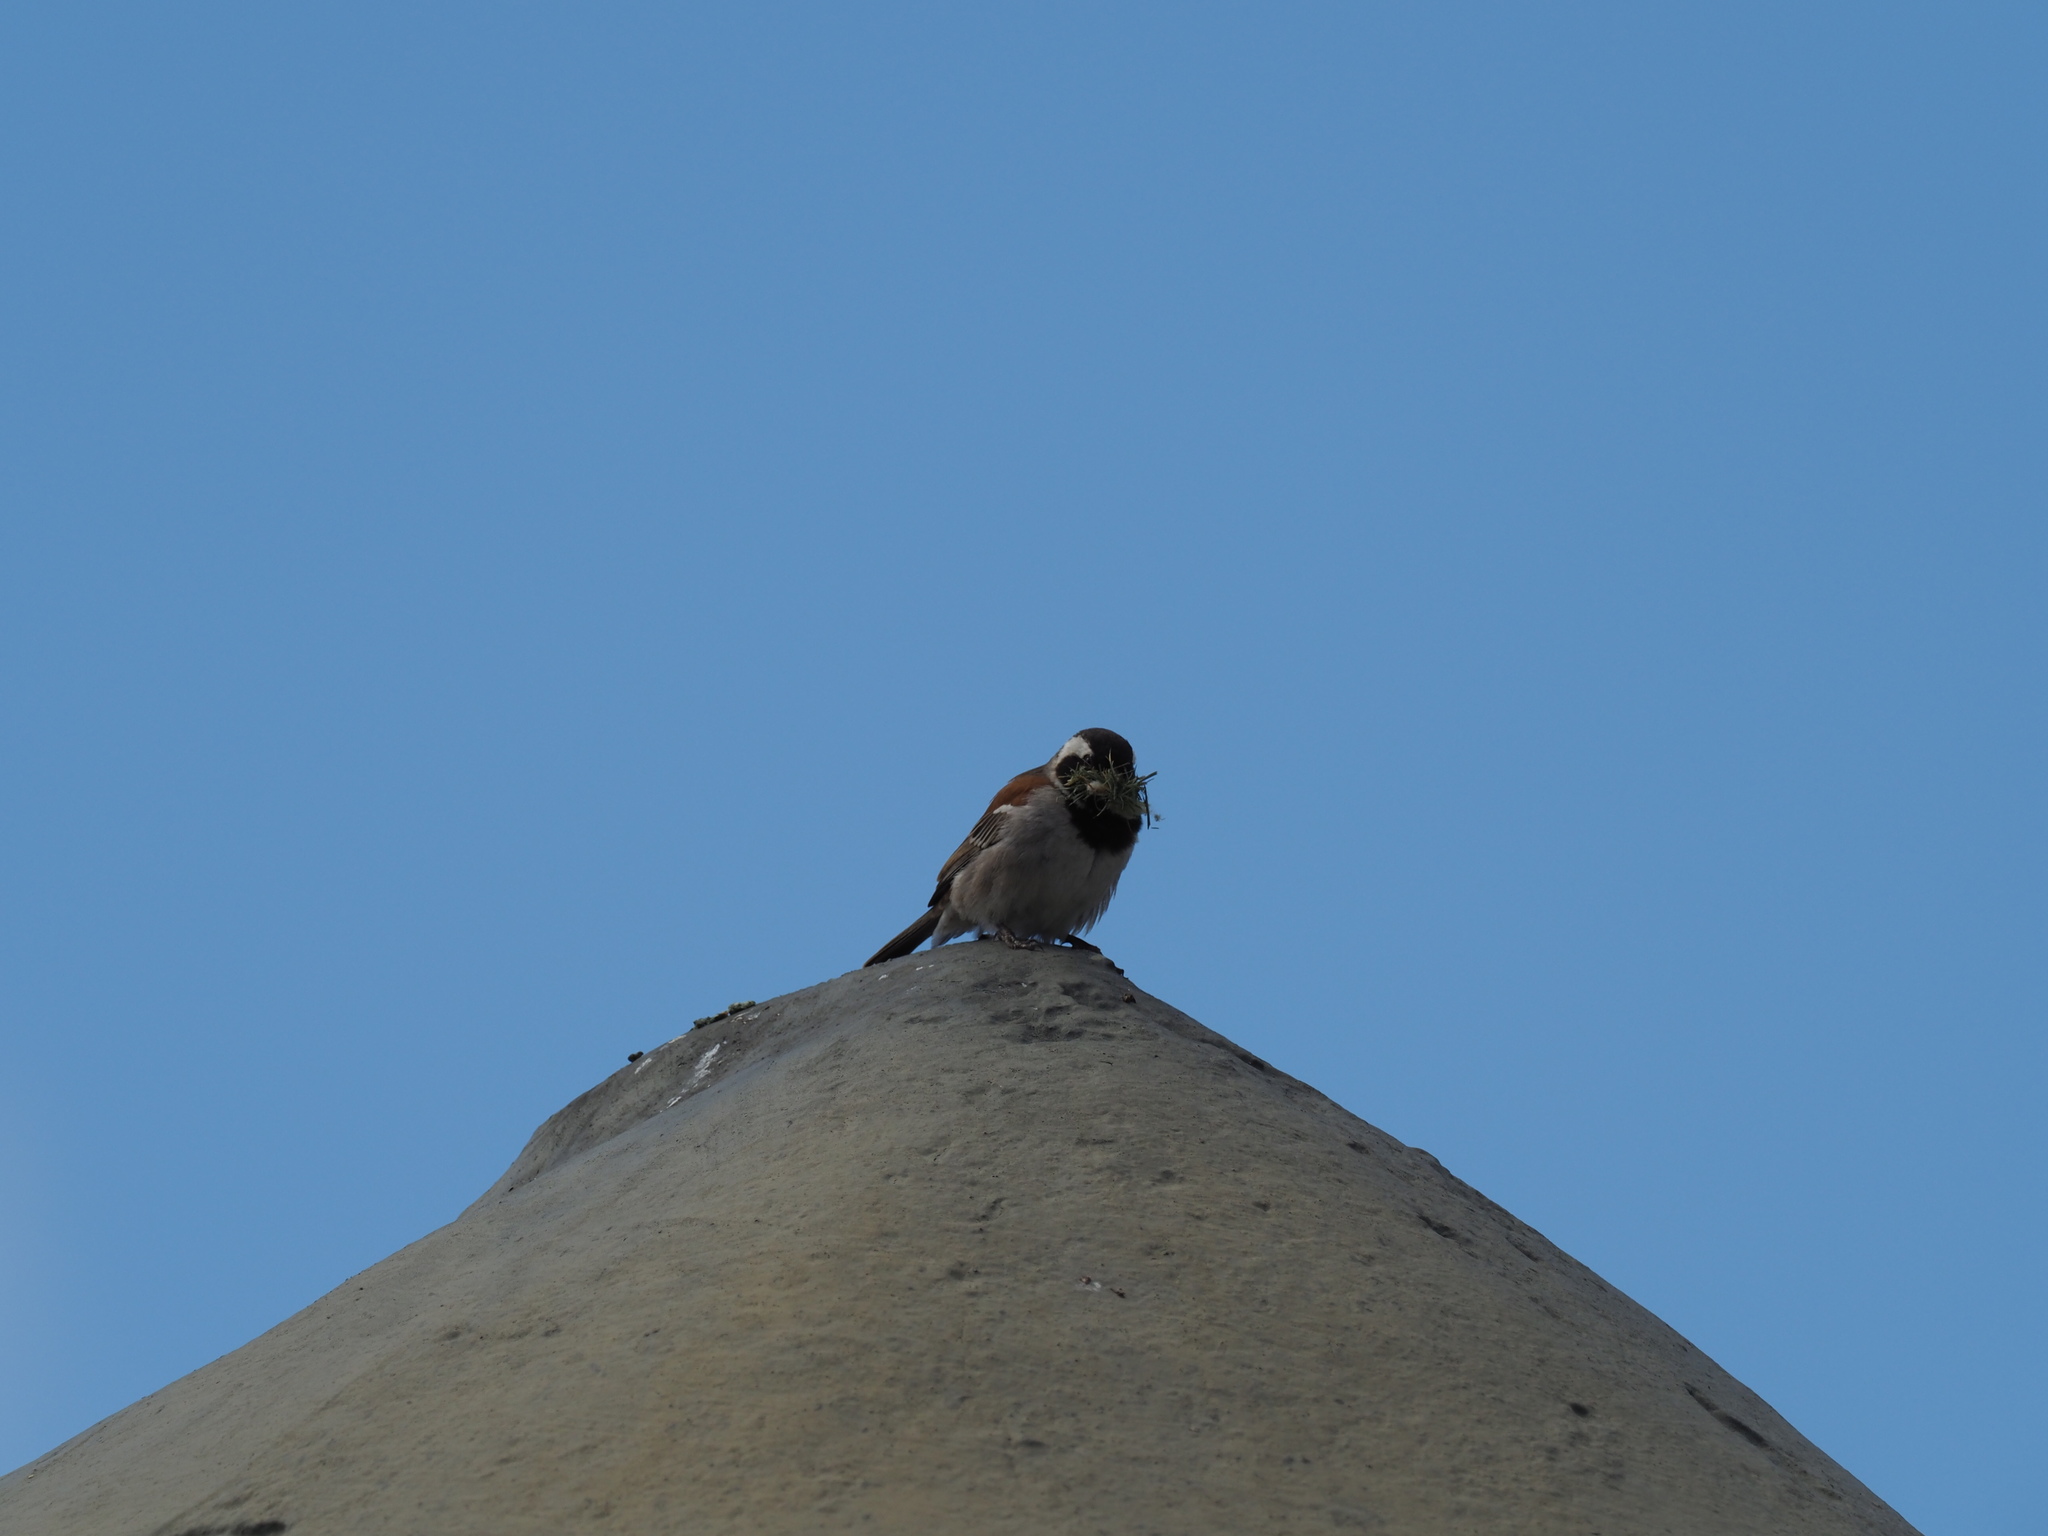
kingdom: Animalia
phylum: Chordata
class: Aves
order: Passeriformes
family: Passeridae
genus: Passer
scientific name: Passer melanurus
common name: Cape sparrow
